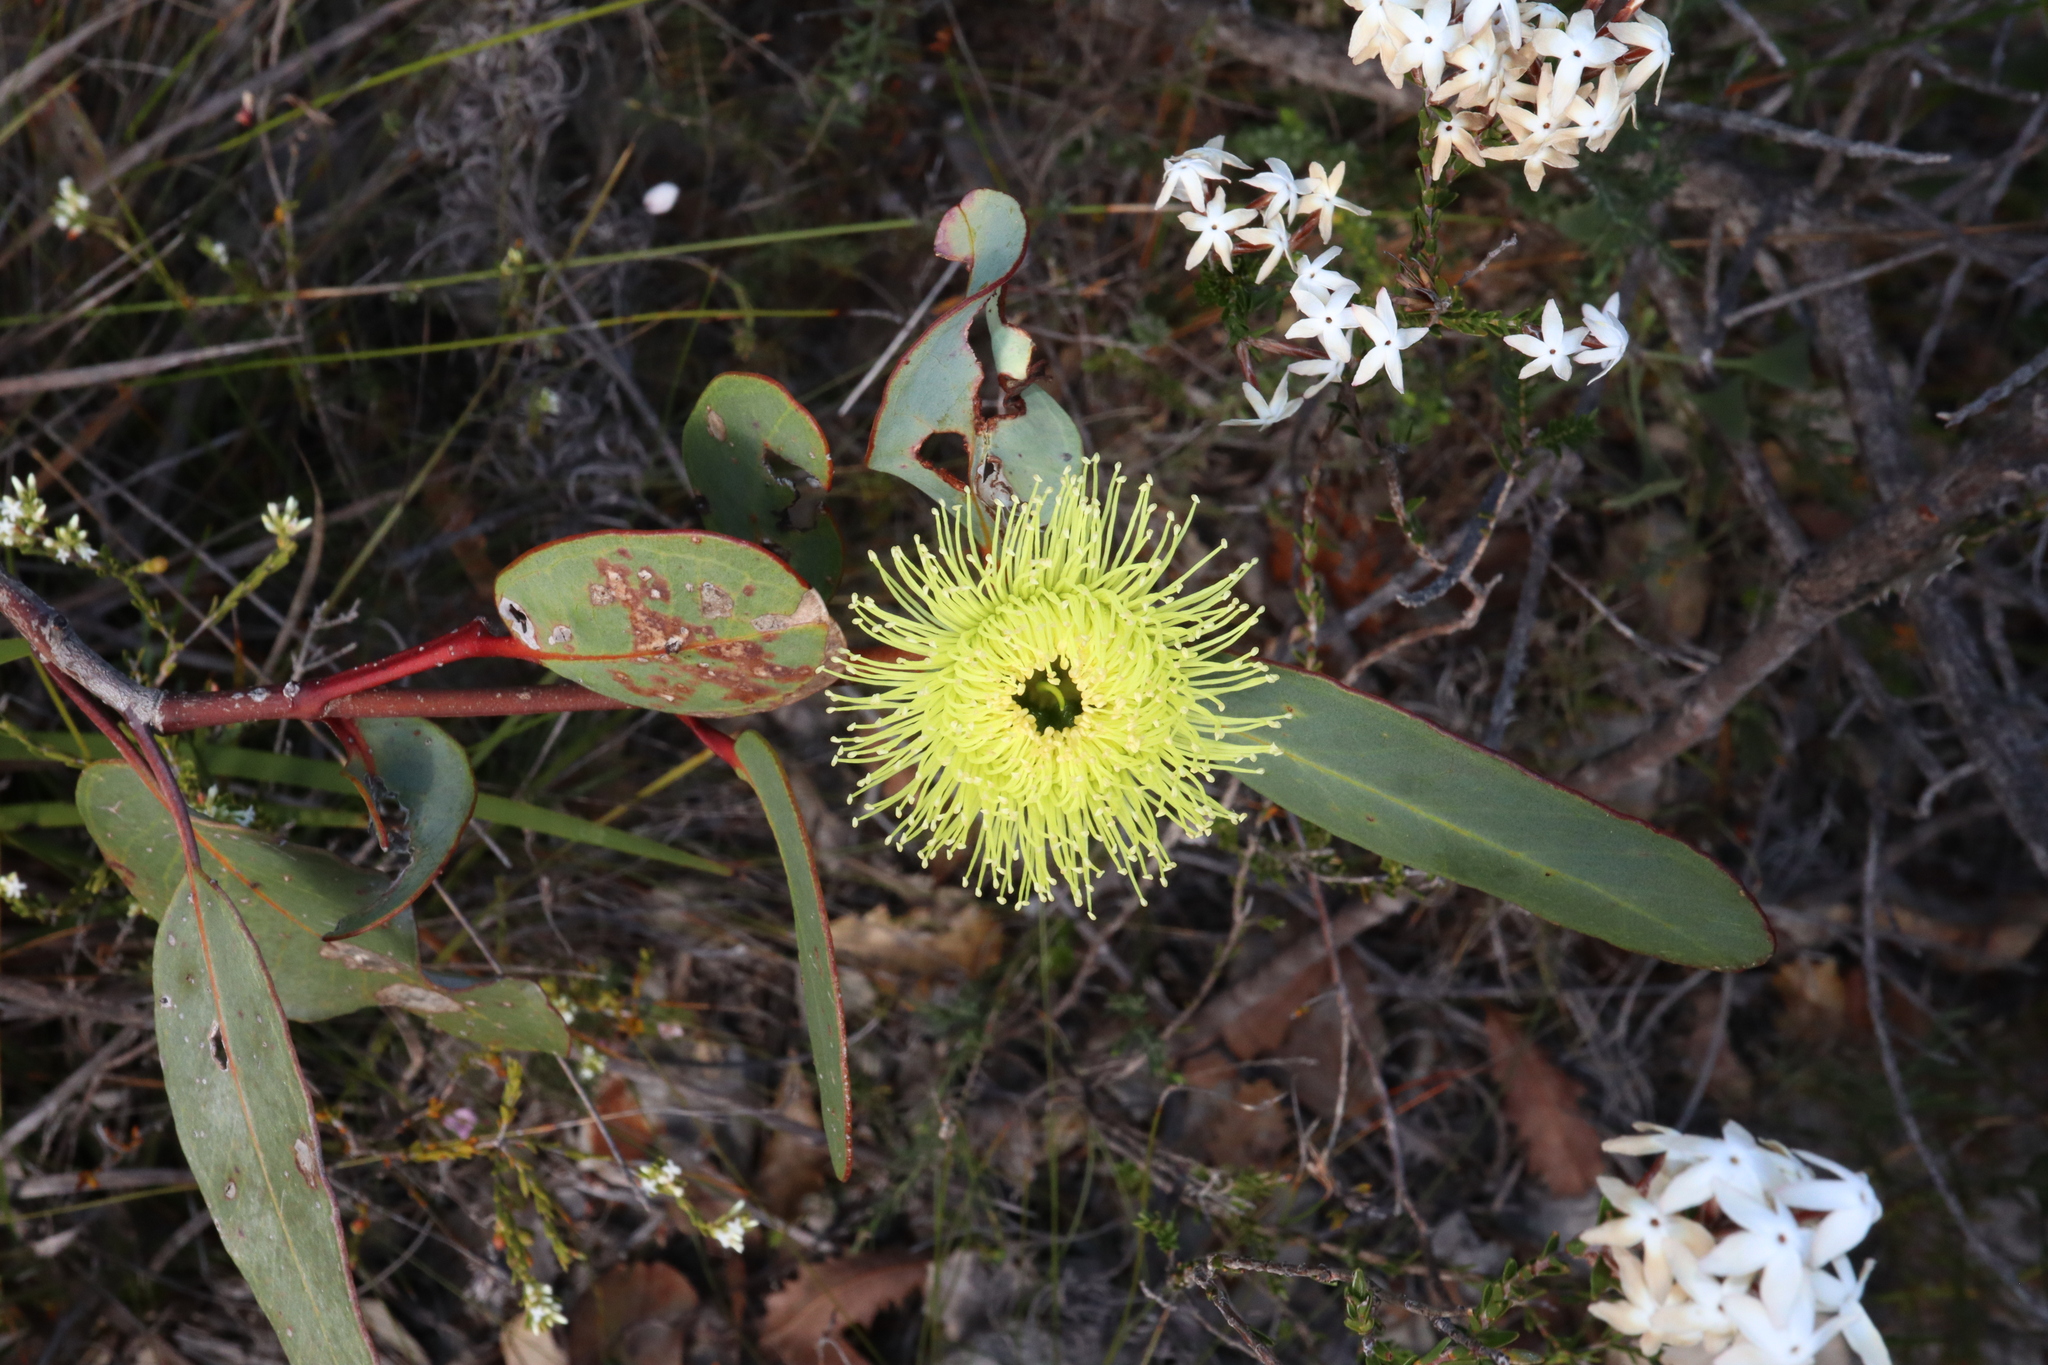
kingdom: Plantae
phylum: Tracheophyta
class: Magnoliopsida
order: Myrtales
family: Myrtaceae
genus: Eucalyptus
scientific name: Eucalyptus preissiana
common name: Stirling range mallee
